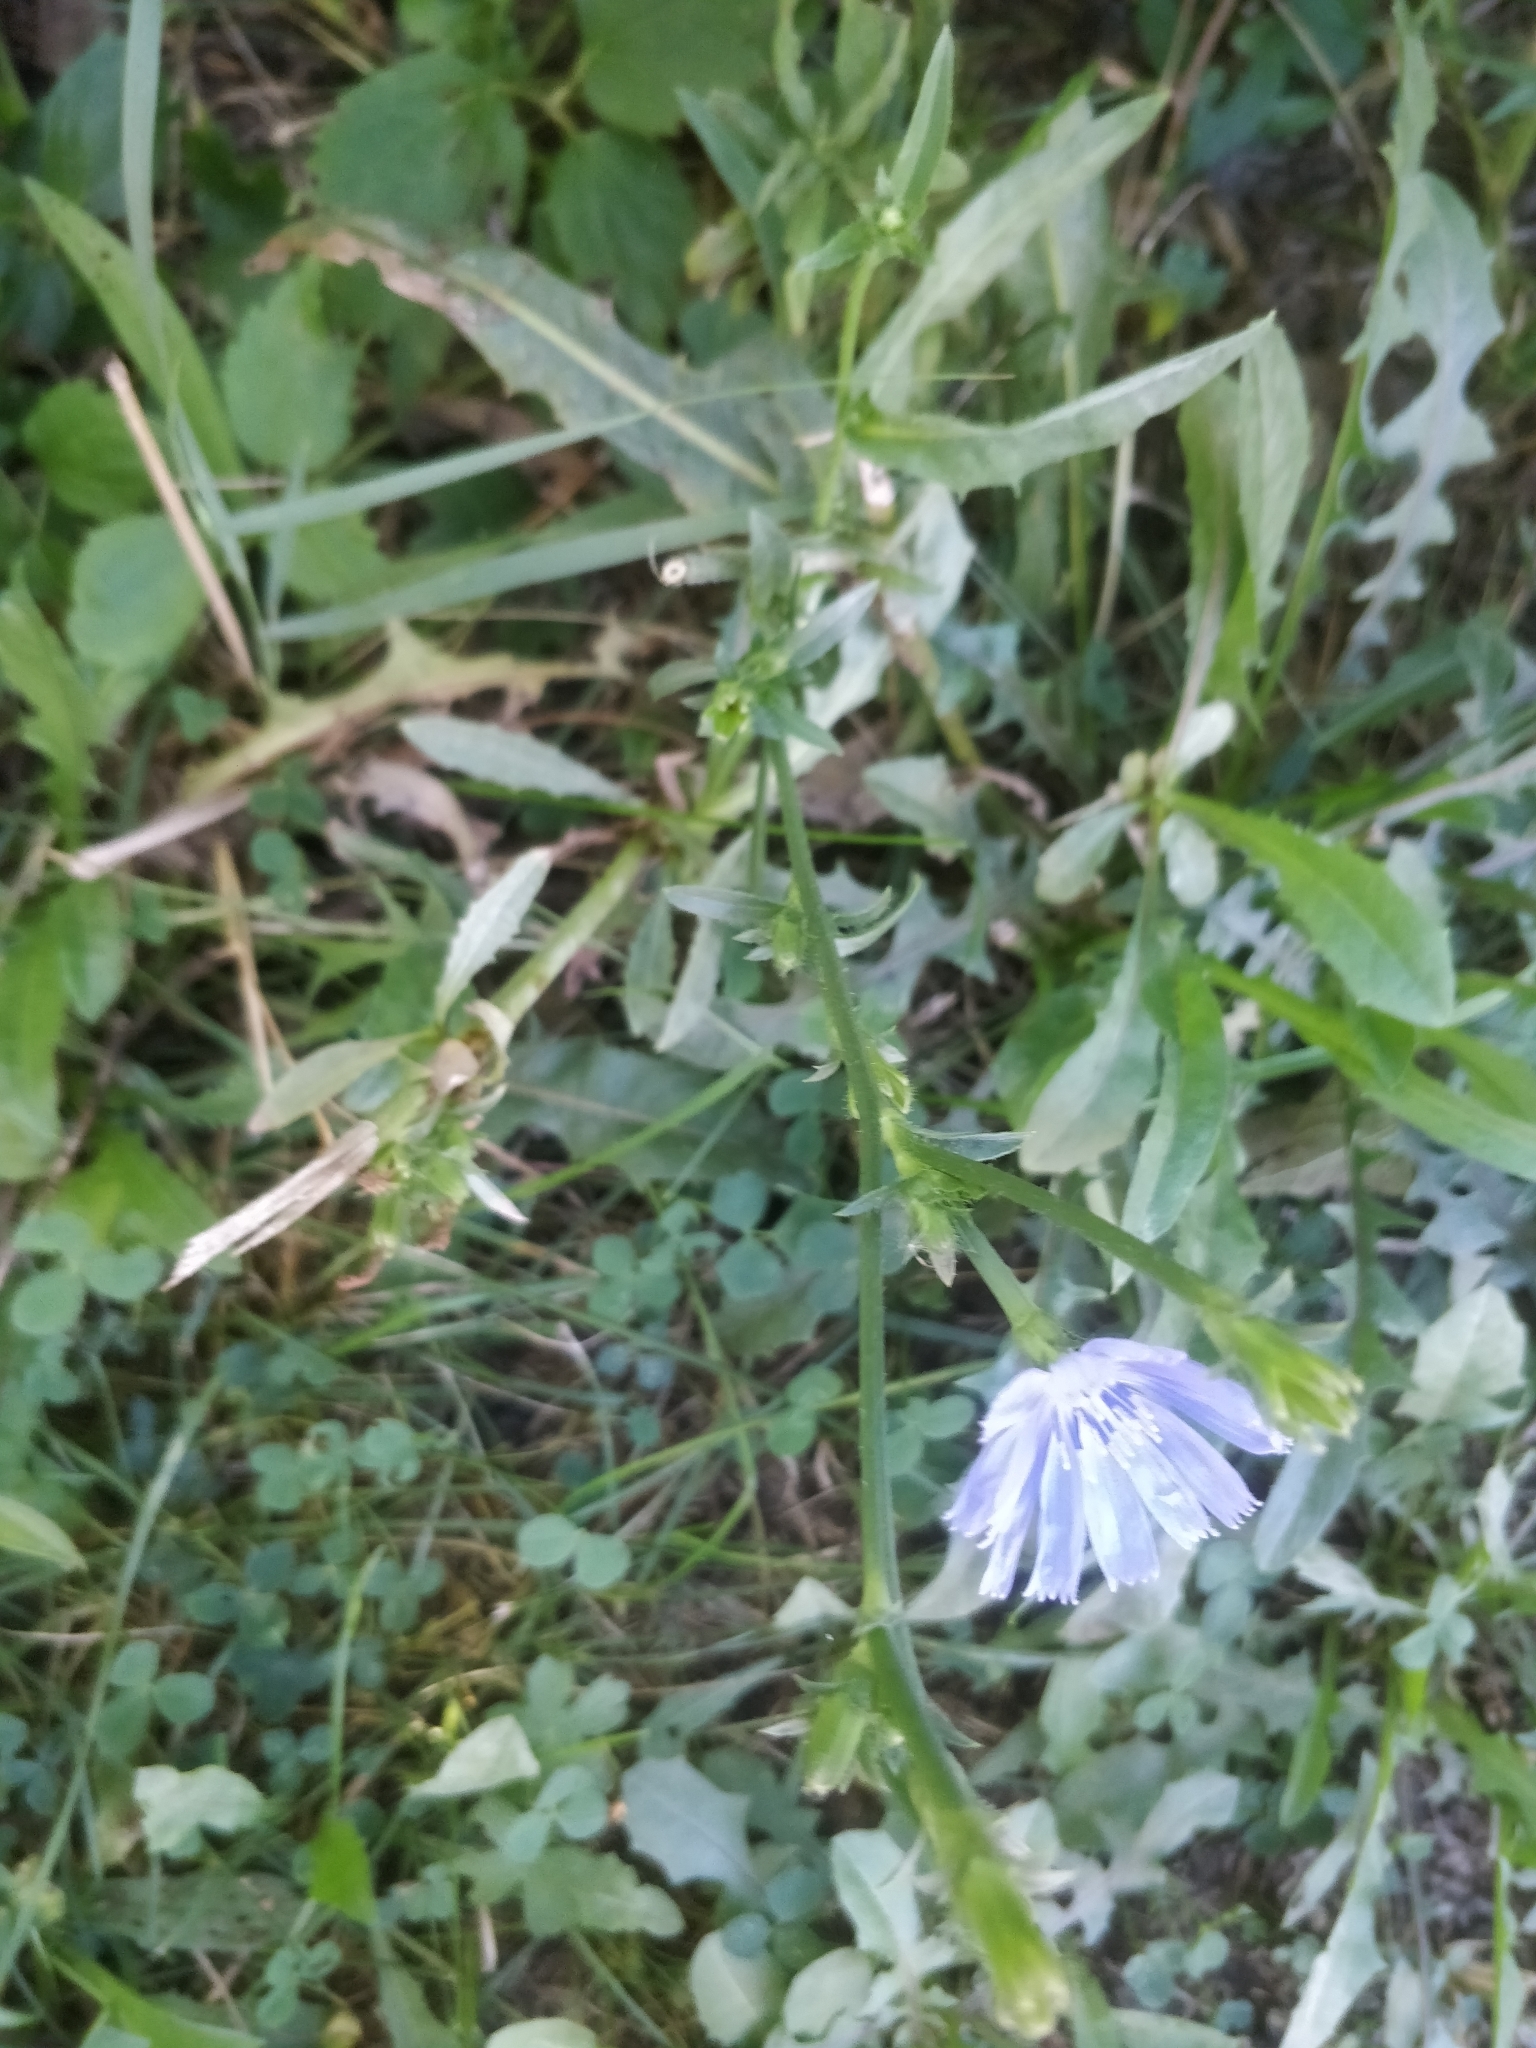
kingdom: Plantae
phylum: Tracheophyta
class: Magnoliopsida
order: Asterales
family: Asteraceae
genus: Cichorium
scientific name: Cichorium intybus
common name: Chicory
